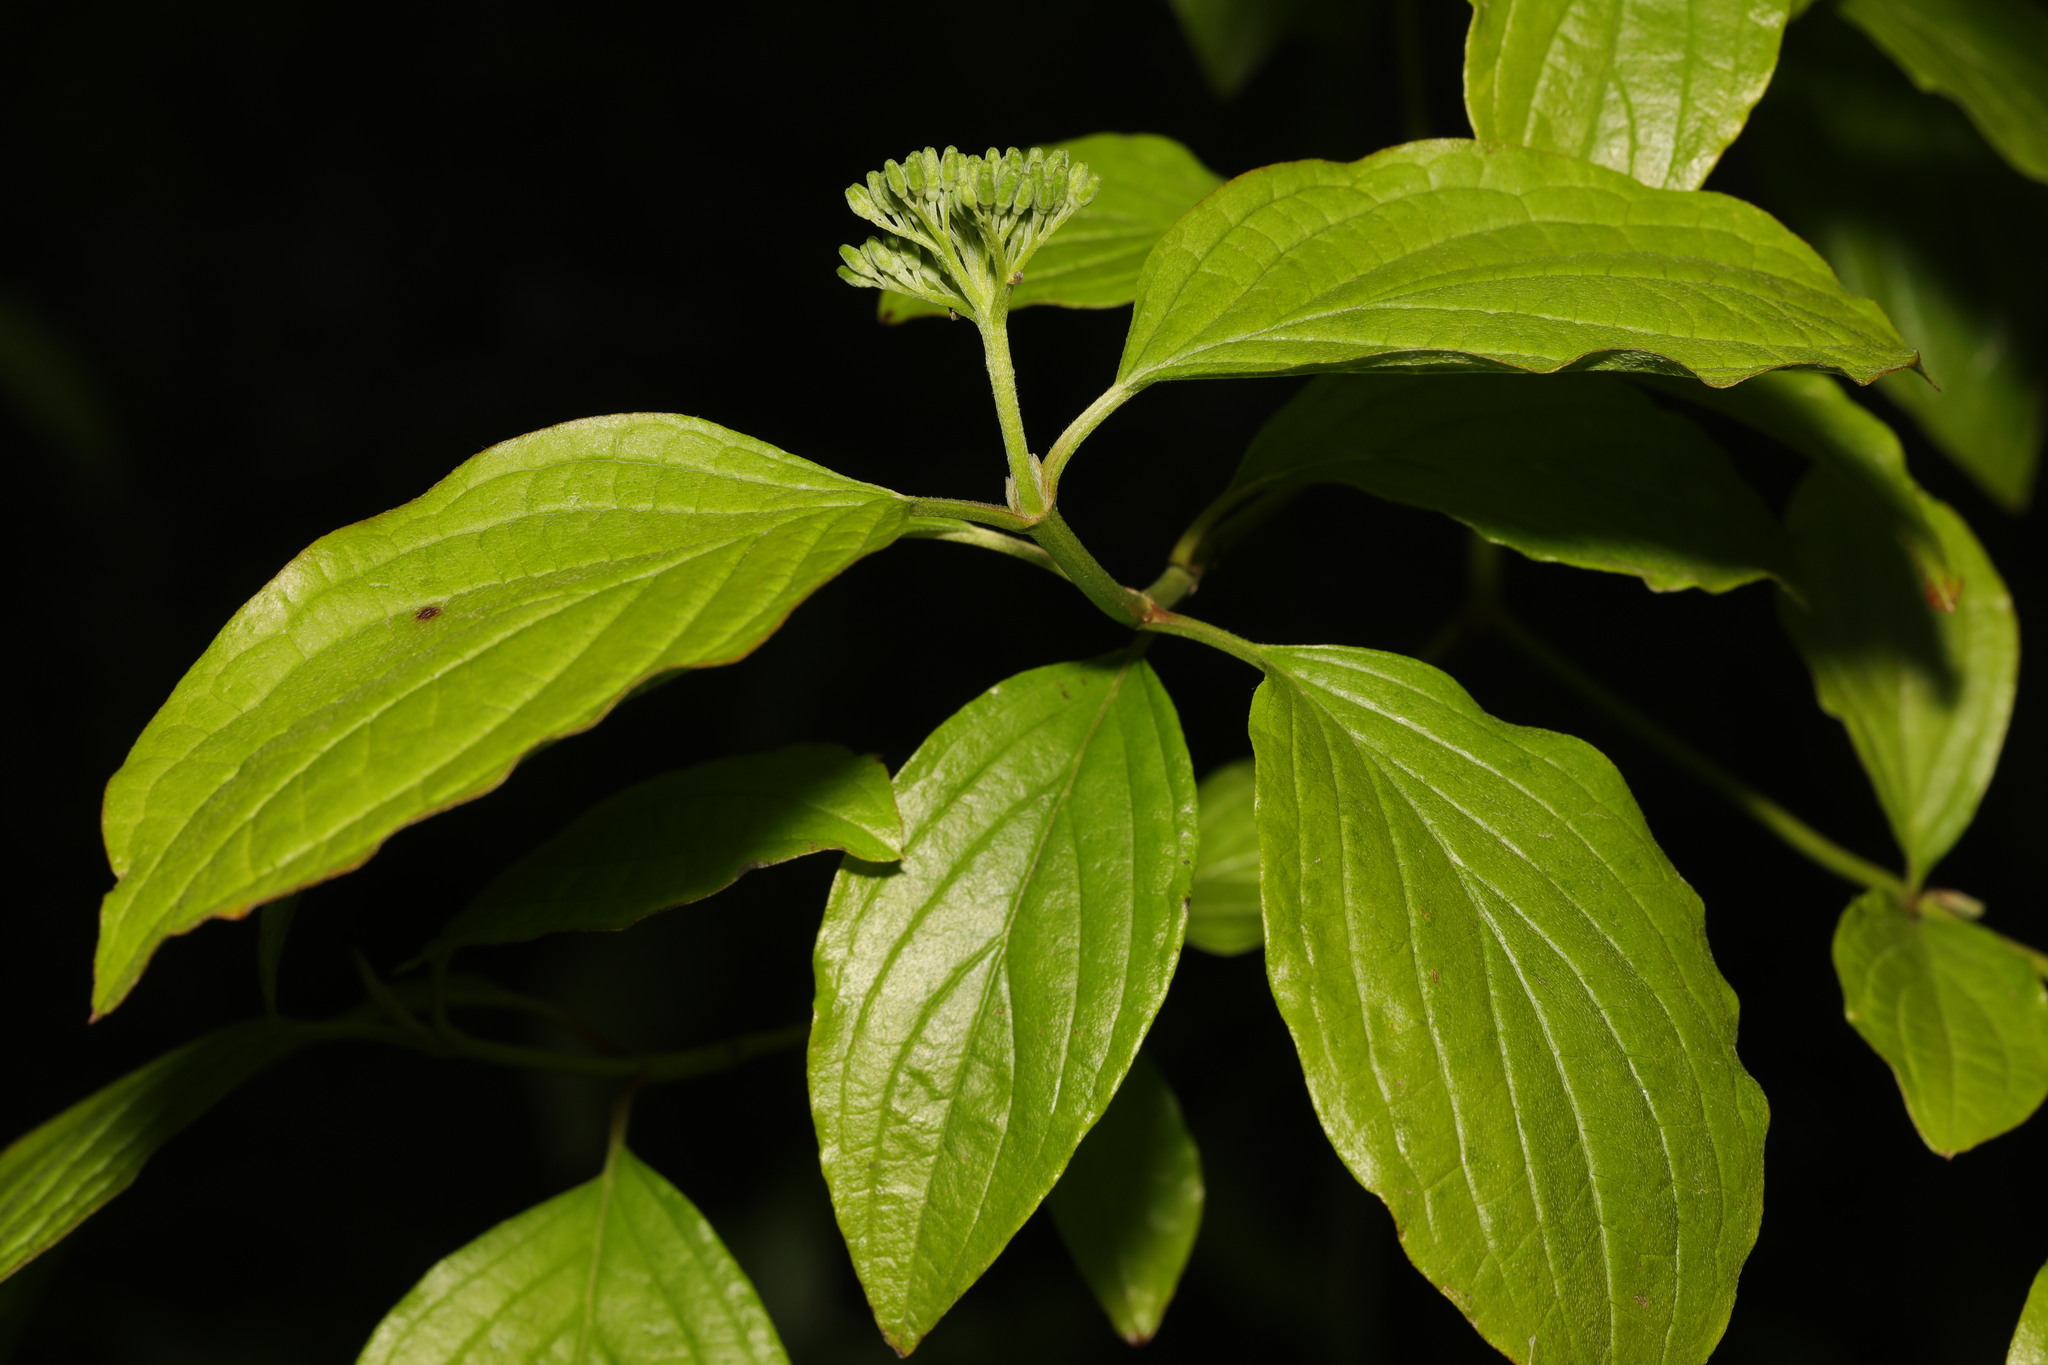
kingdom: Plantae
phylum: Tracheophyta
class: Magnoliopsida
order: Cornales
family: Cornaceae
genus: Cornus
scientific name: Cornus sanguinea
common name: Dogwood
